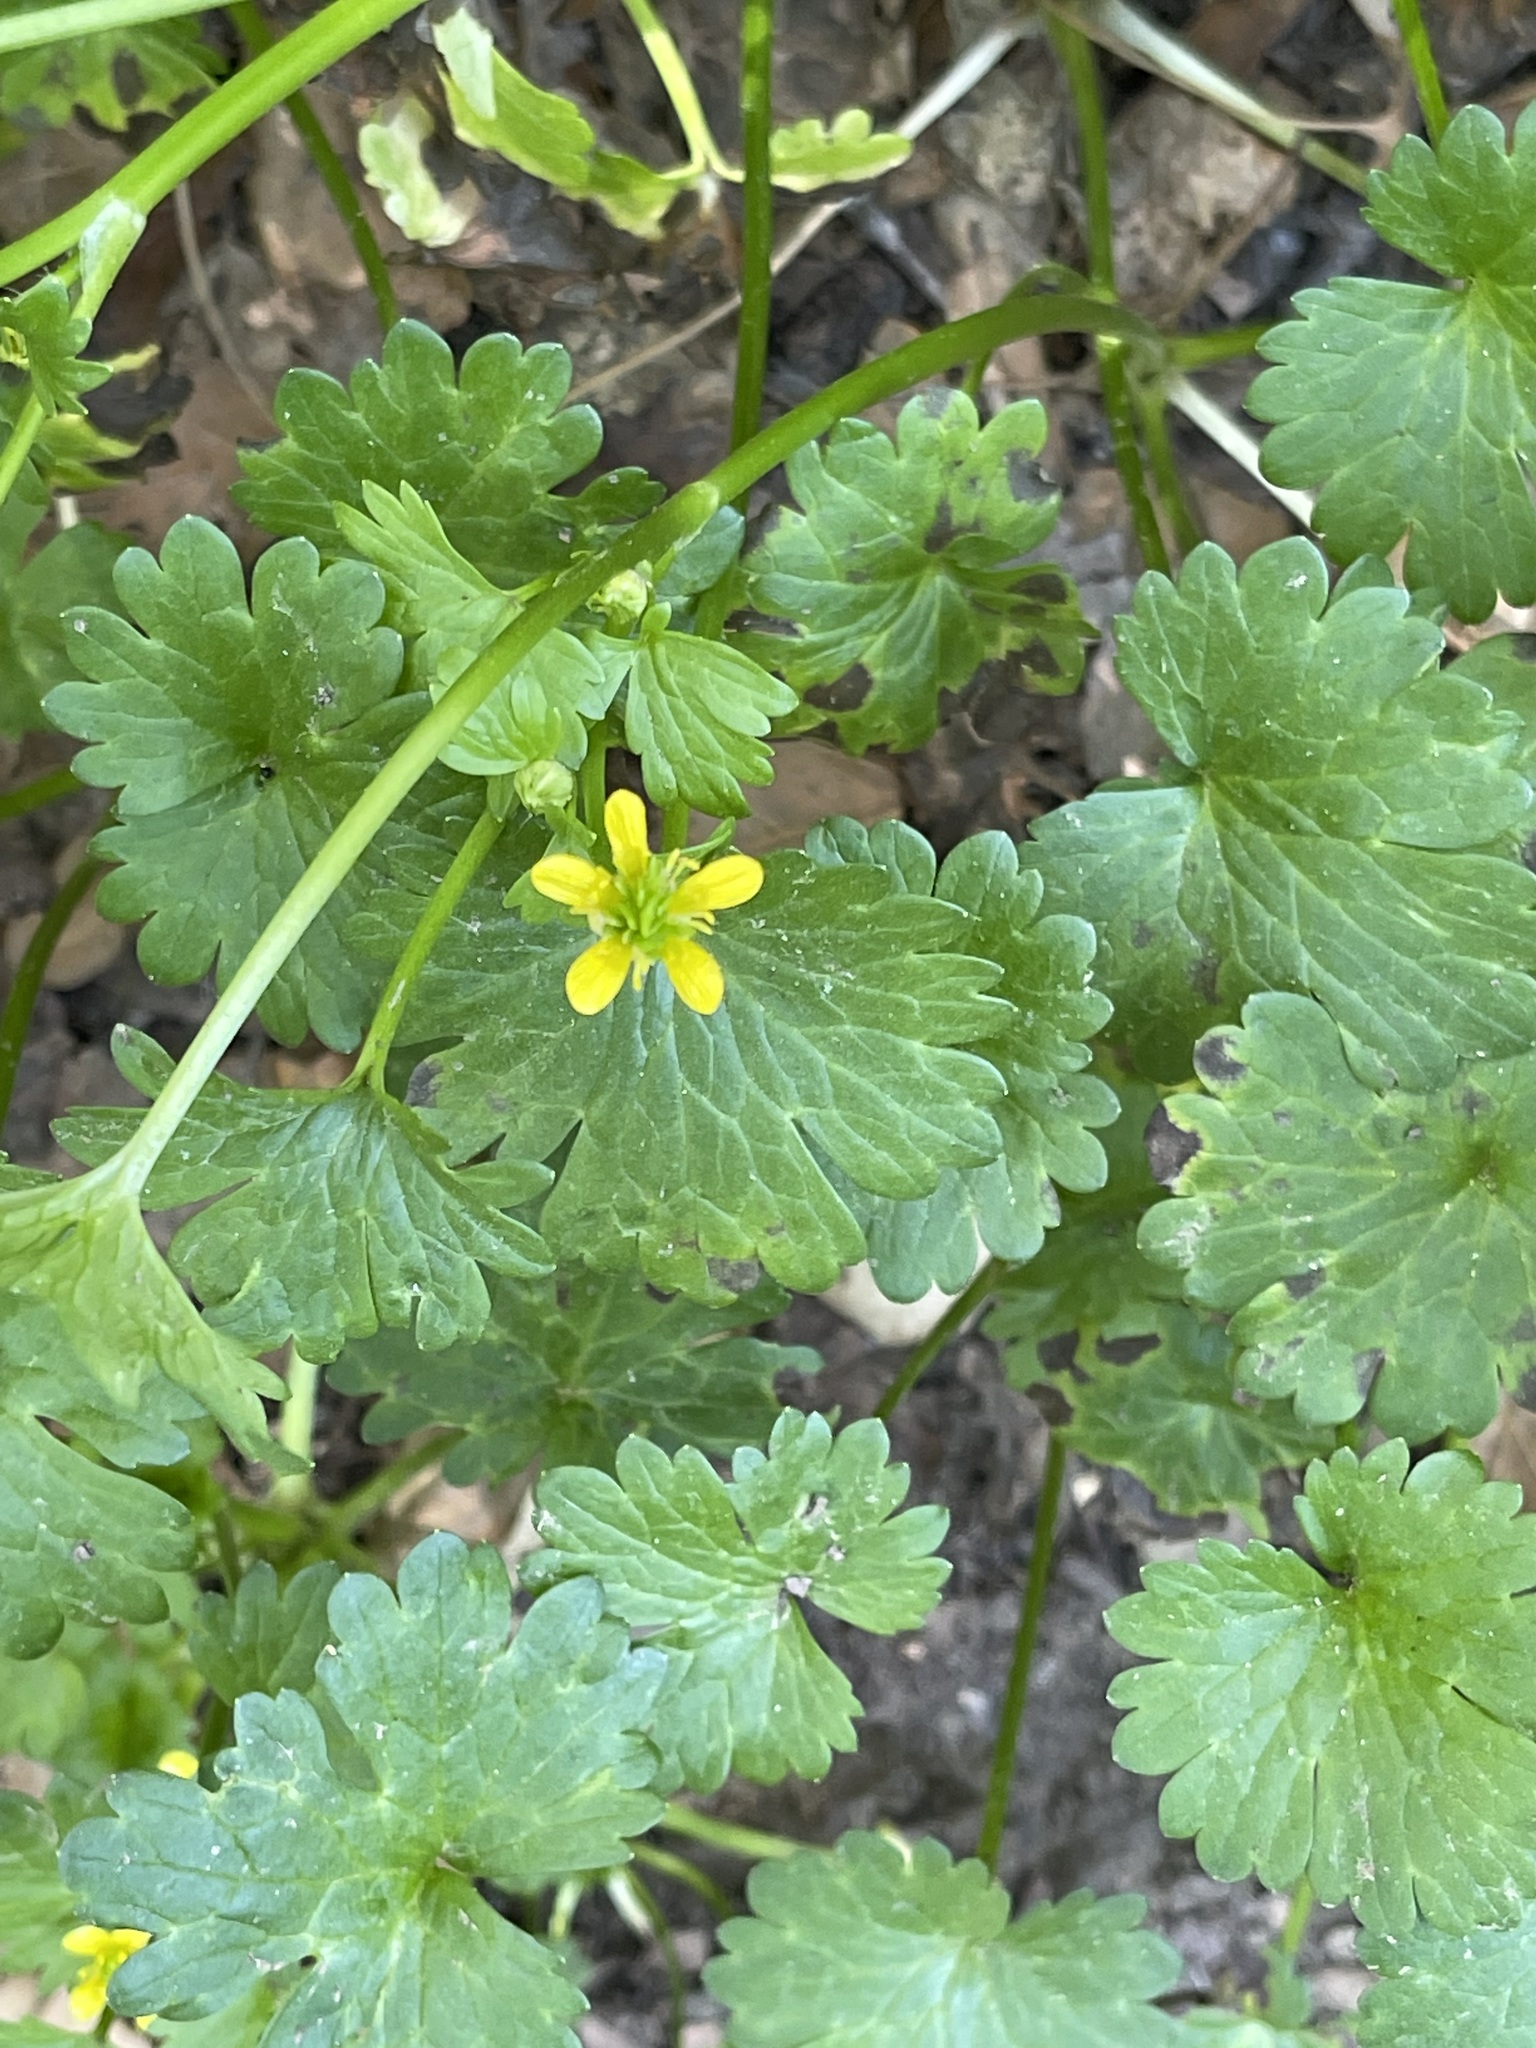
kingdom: Plantae
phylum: Tracheophyta
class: Magnoliopsida
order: Ranunculales
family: Ranunculaceae
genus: Ranunculus
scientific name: Ranunculus muricatus
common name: Rough-fruited buttercup
